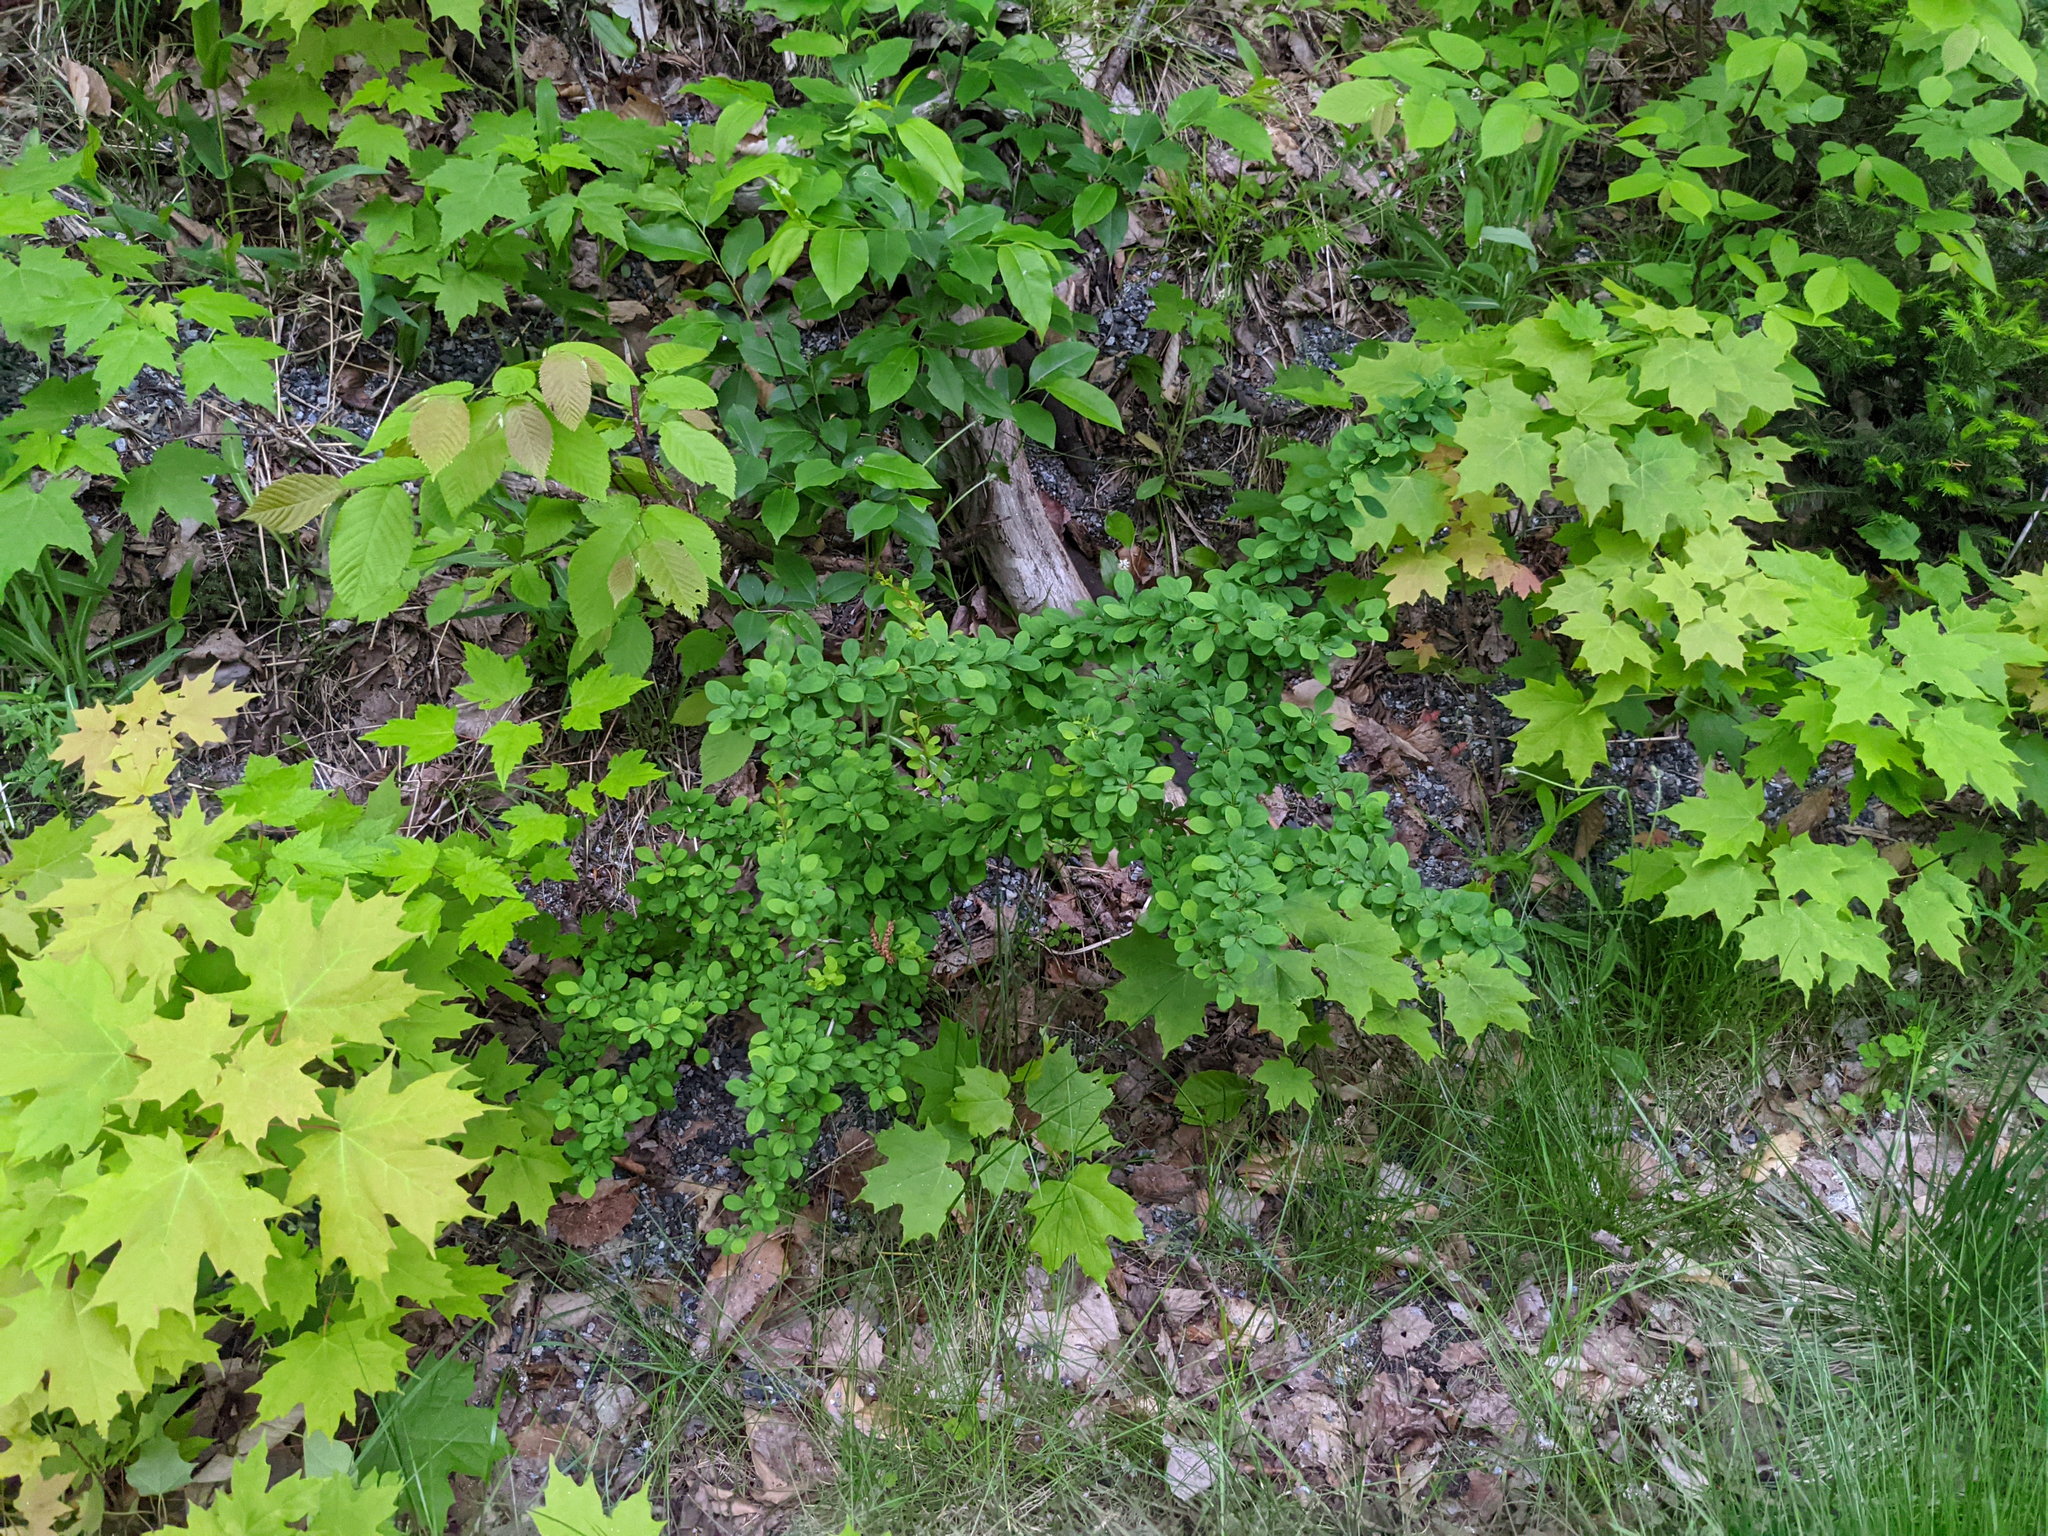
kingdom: Plantae
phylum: Tracheophyta
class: Magnoliopsida
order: Ranunculales
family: Berberidaceae
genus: Berberis
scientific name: Berberis thunbergii
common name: Japanese barberry
